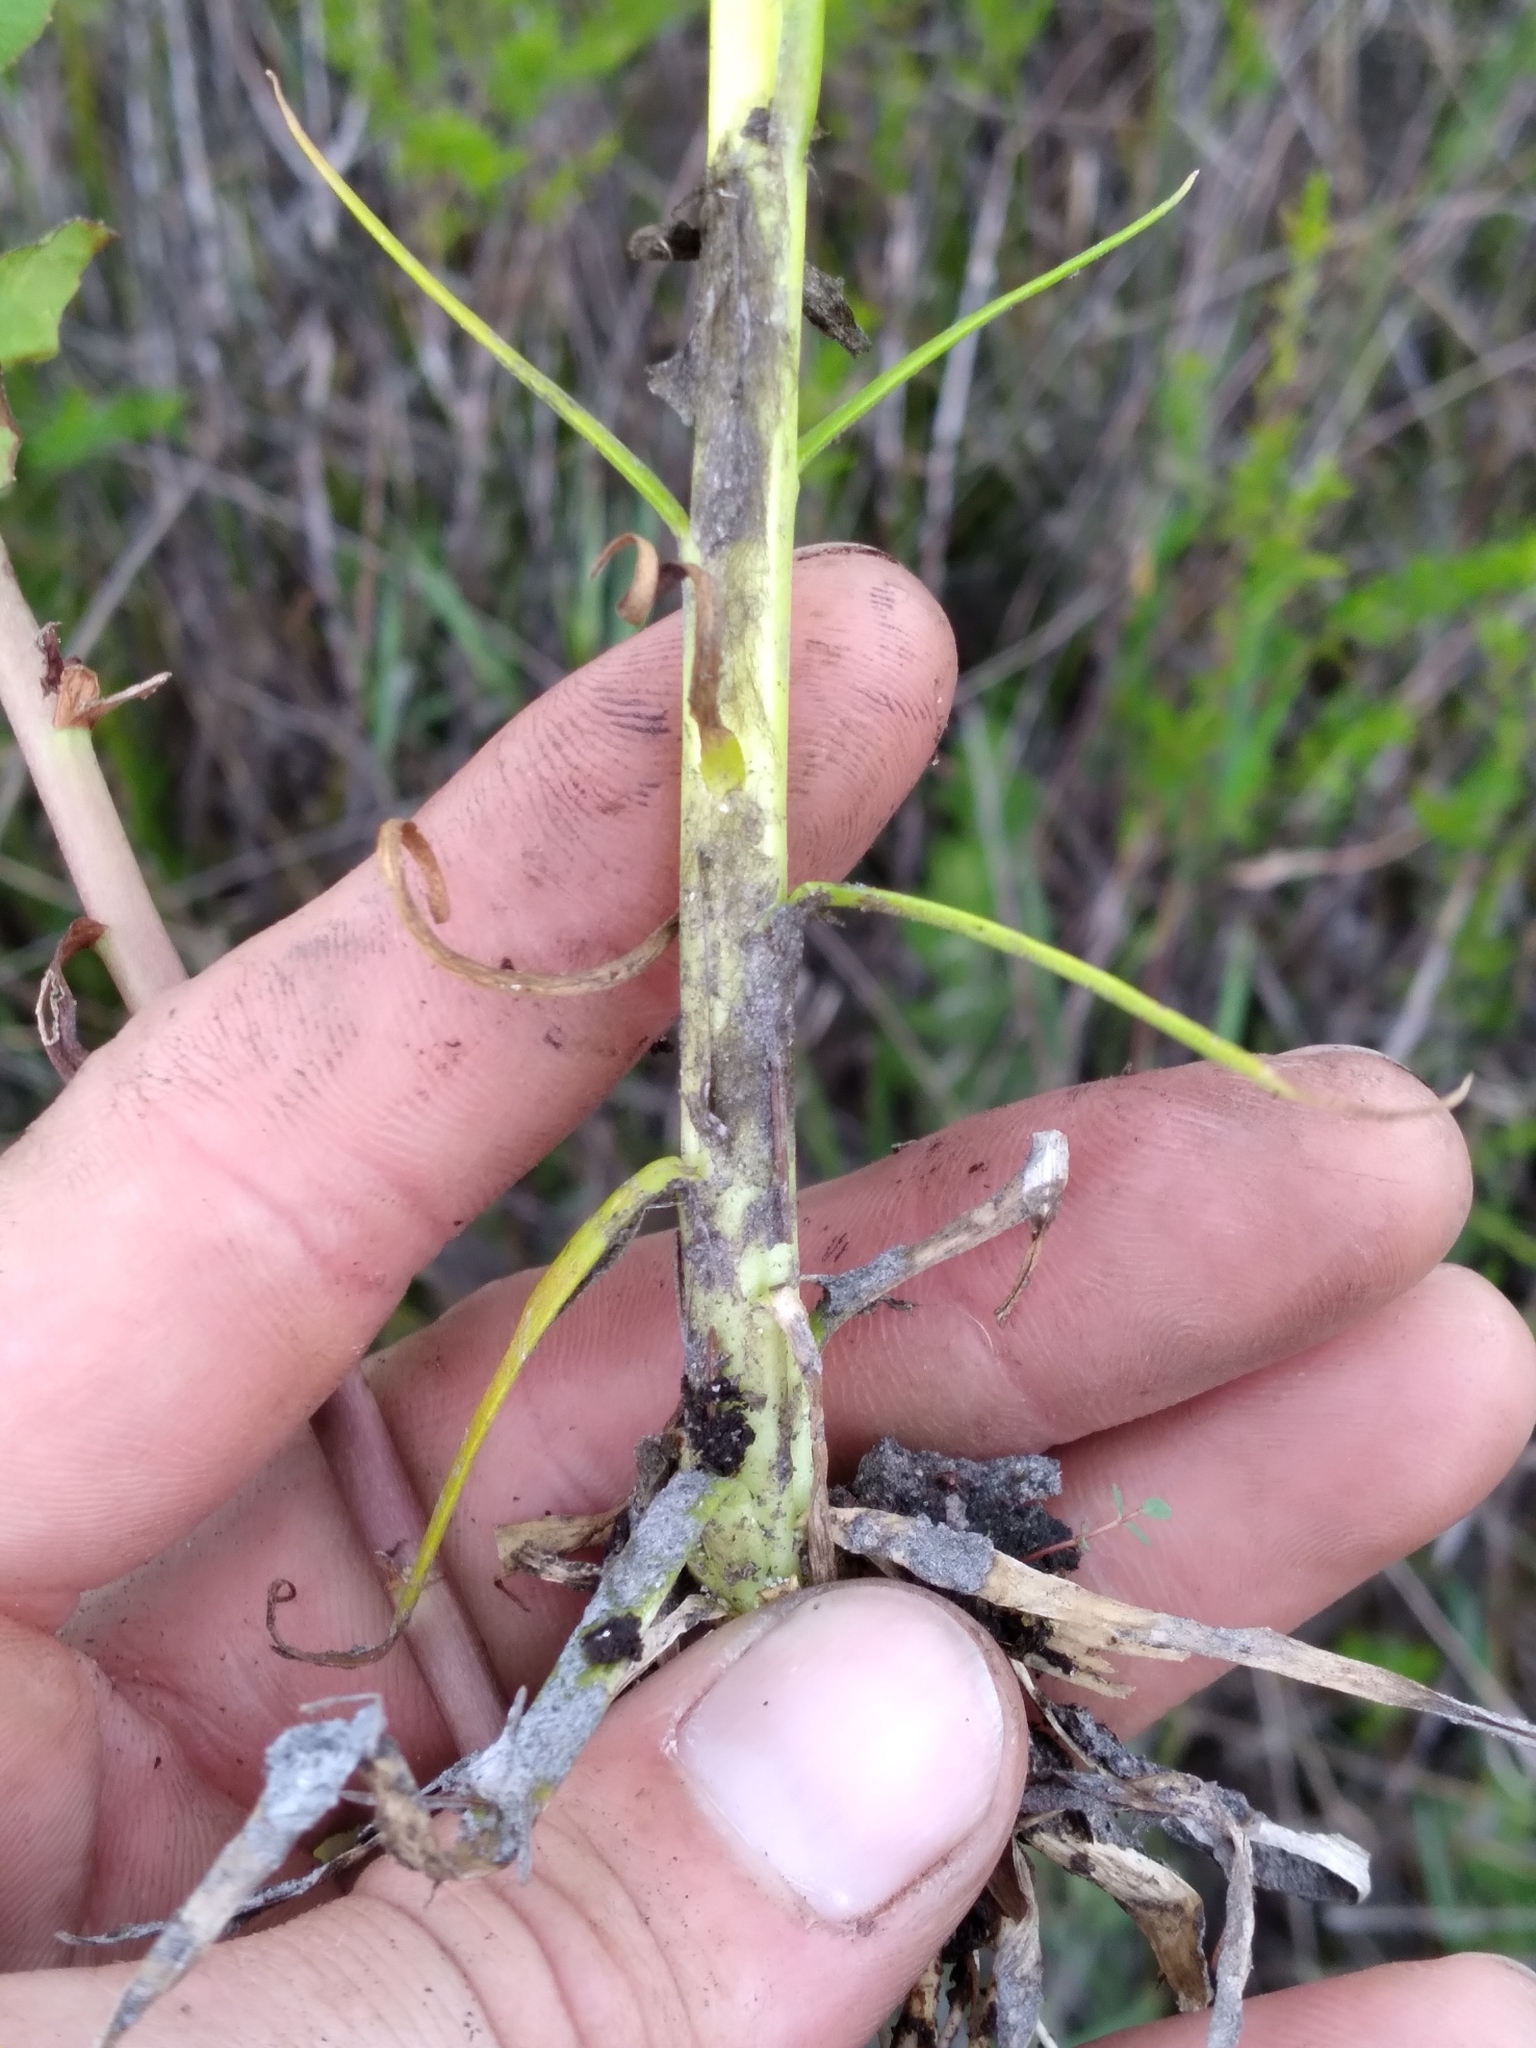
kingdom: Plantae
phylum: Tracheophyta
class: Magnoliopsida
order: Fabales
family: Polygalaceae
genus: Polygala
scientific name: Polygala cymosa
